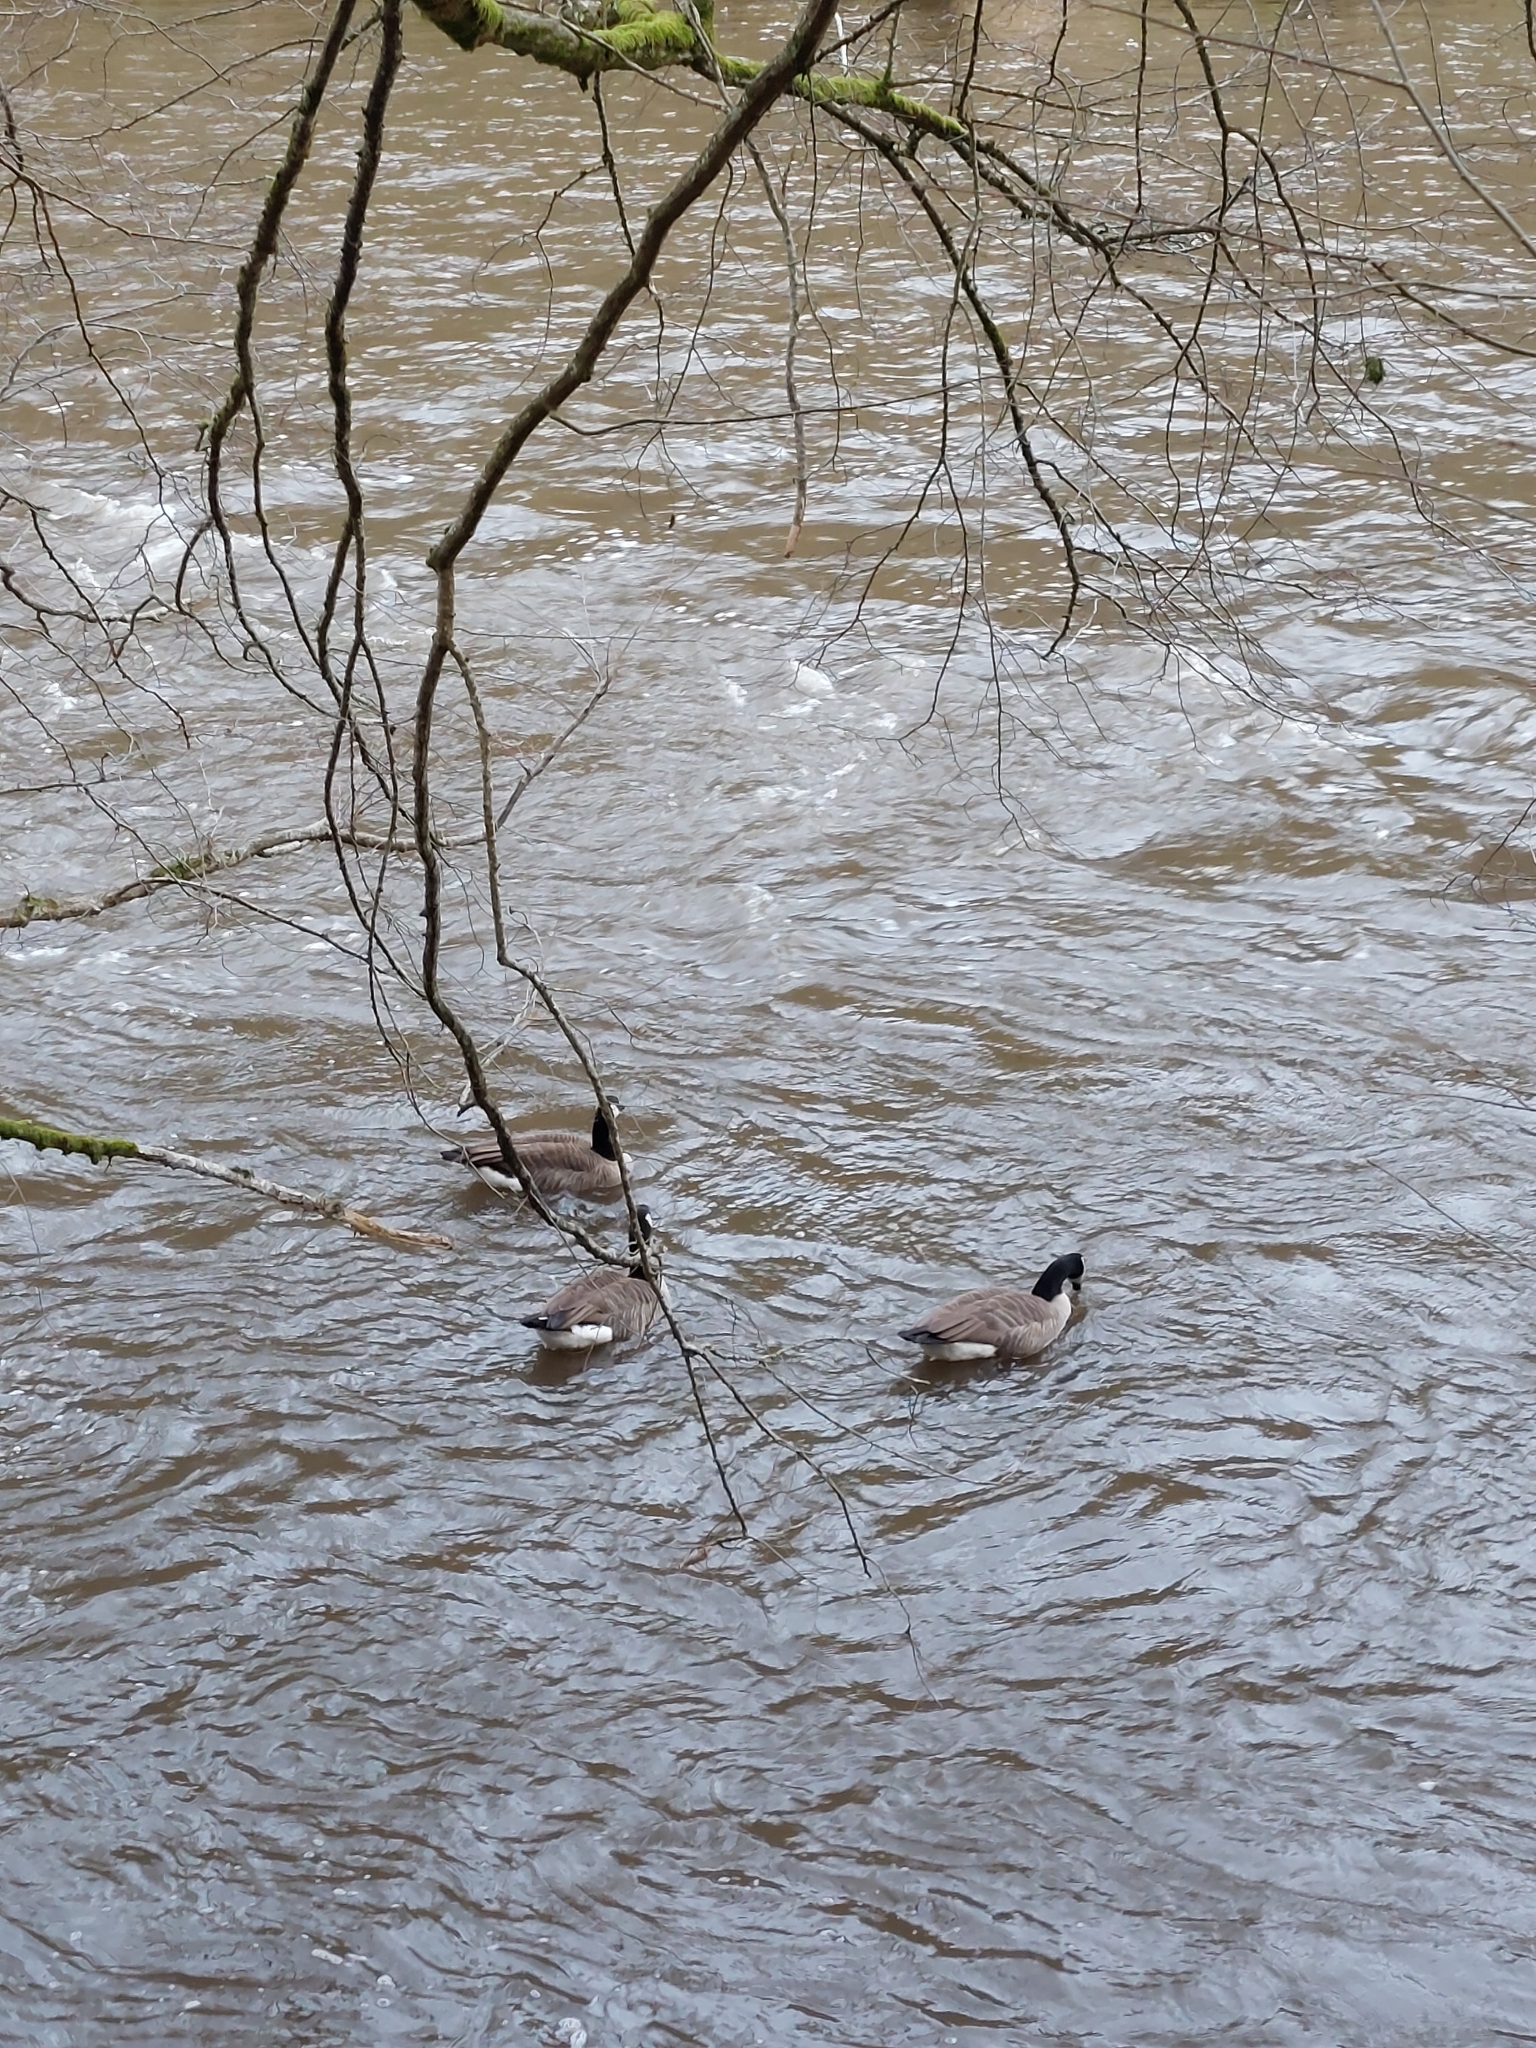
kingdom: Animalia
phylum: Chordata
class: Aves
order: Anseriformes
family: Anatidae
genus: Branta
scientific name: Branta canadensis
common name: Canada goose
